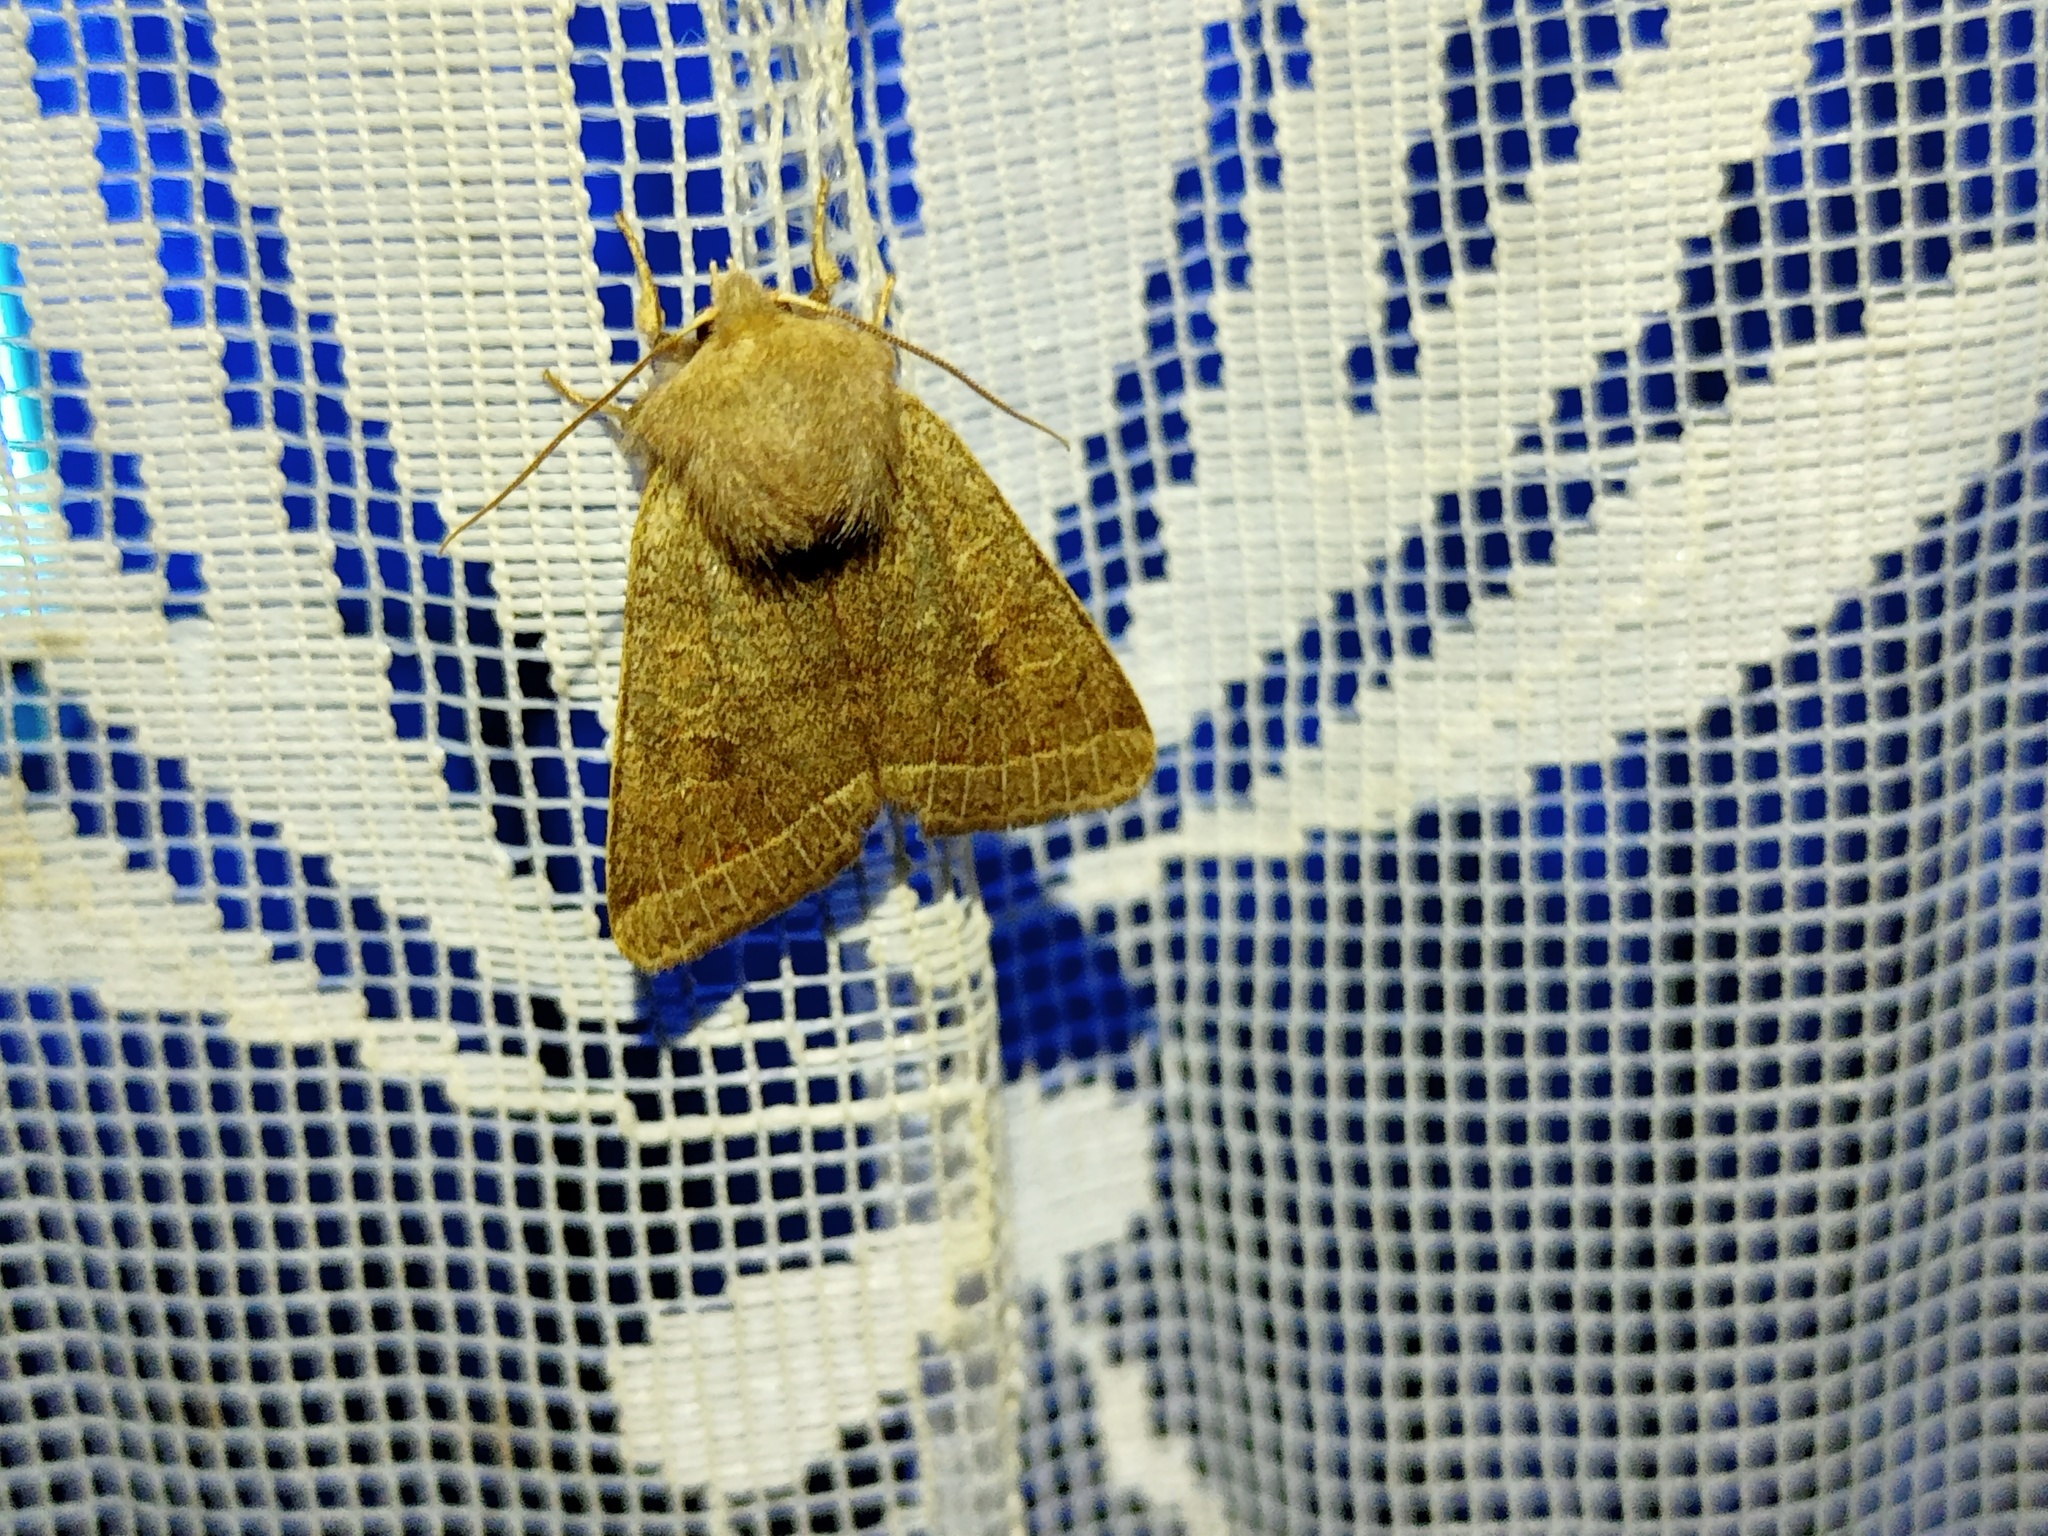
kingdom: Animalia
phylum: Arthropoda
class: Insecta
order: Lepidoptera
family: Noctuidae
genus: Orthosia
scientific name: Orthosia cerasi
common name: Common quaker
